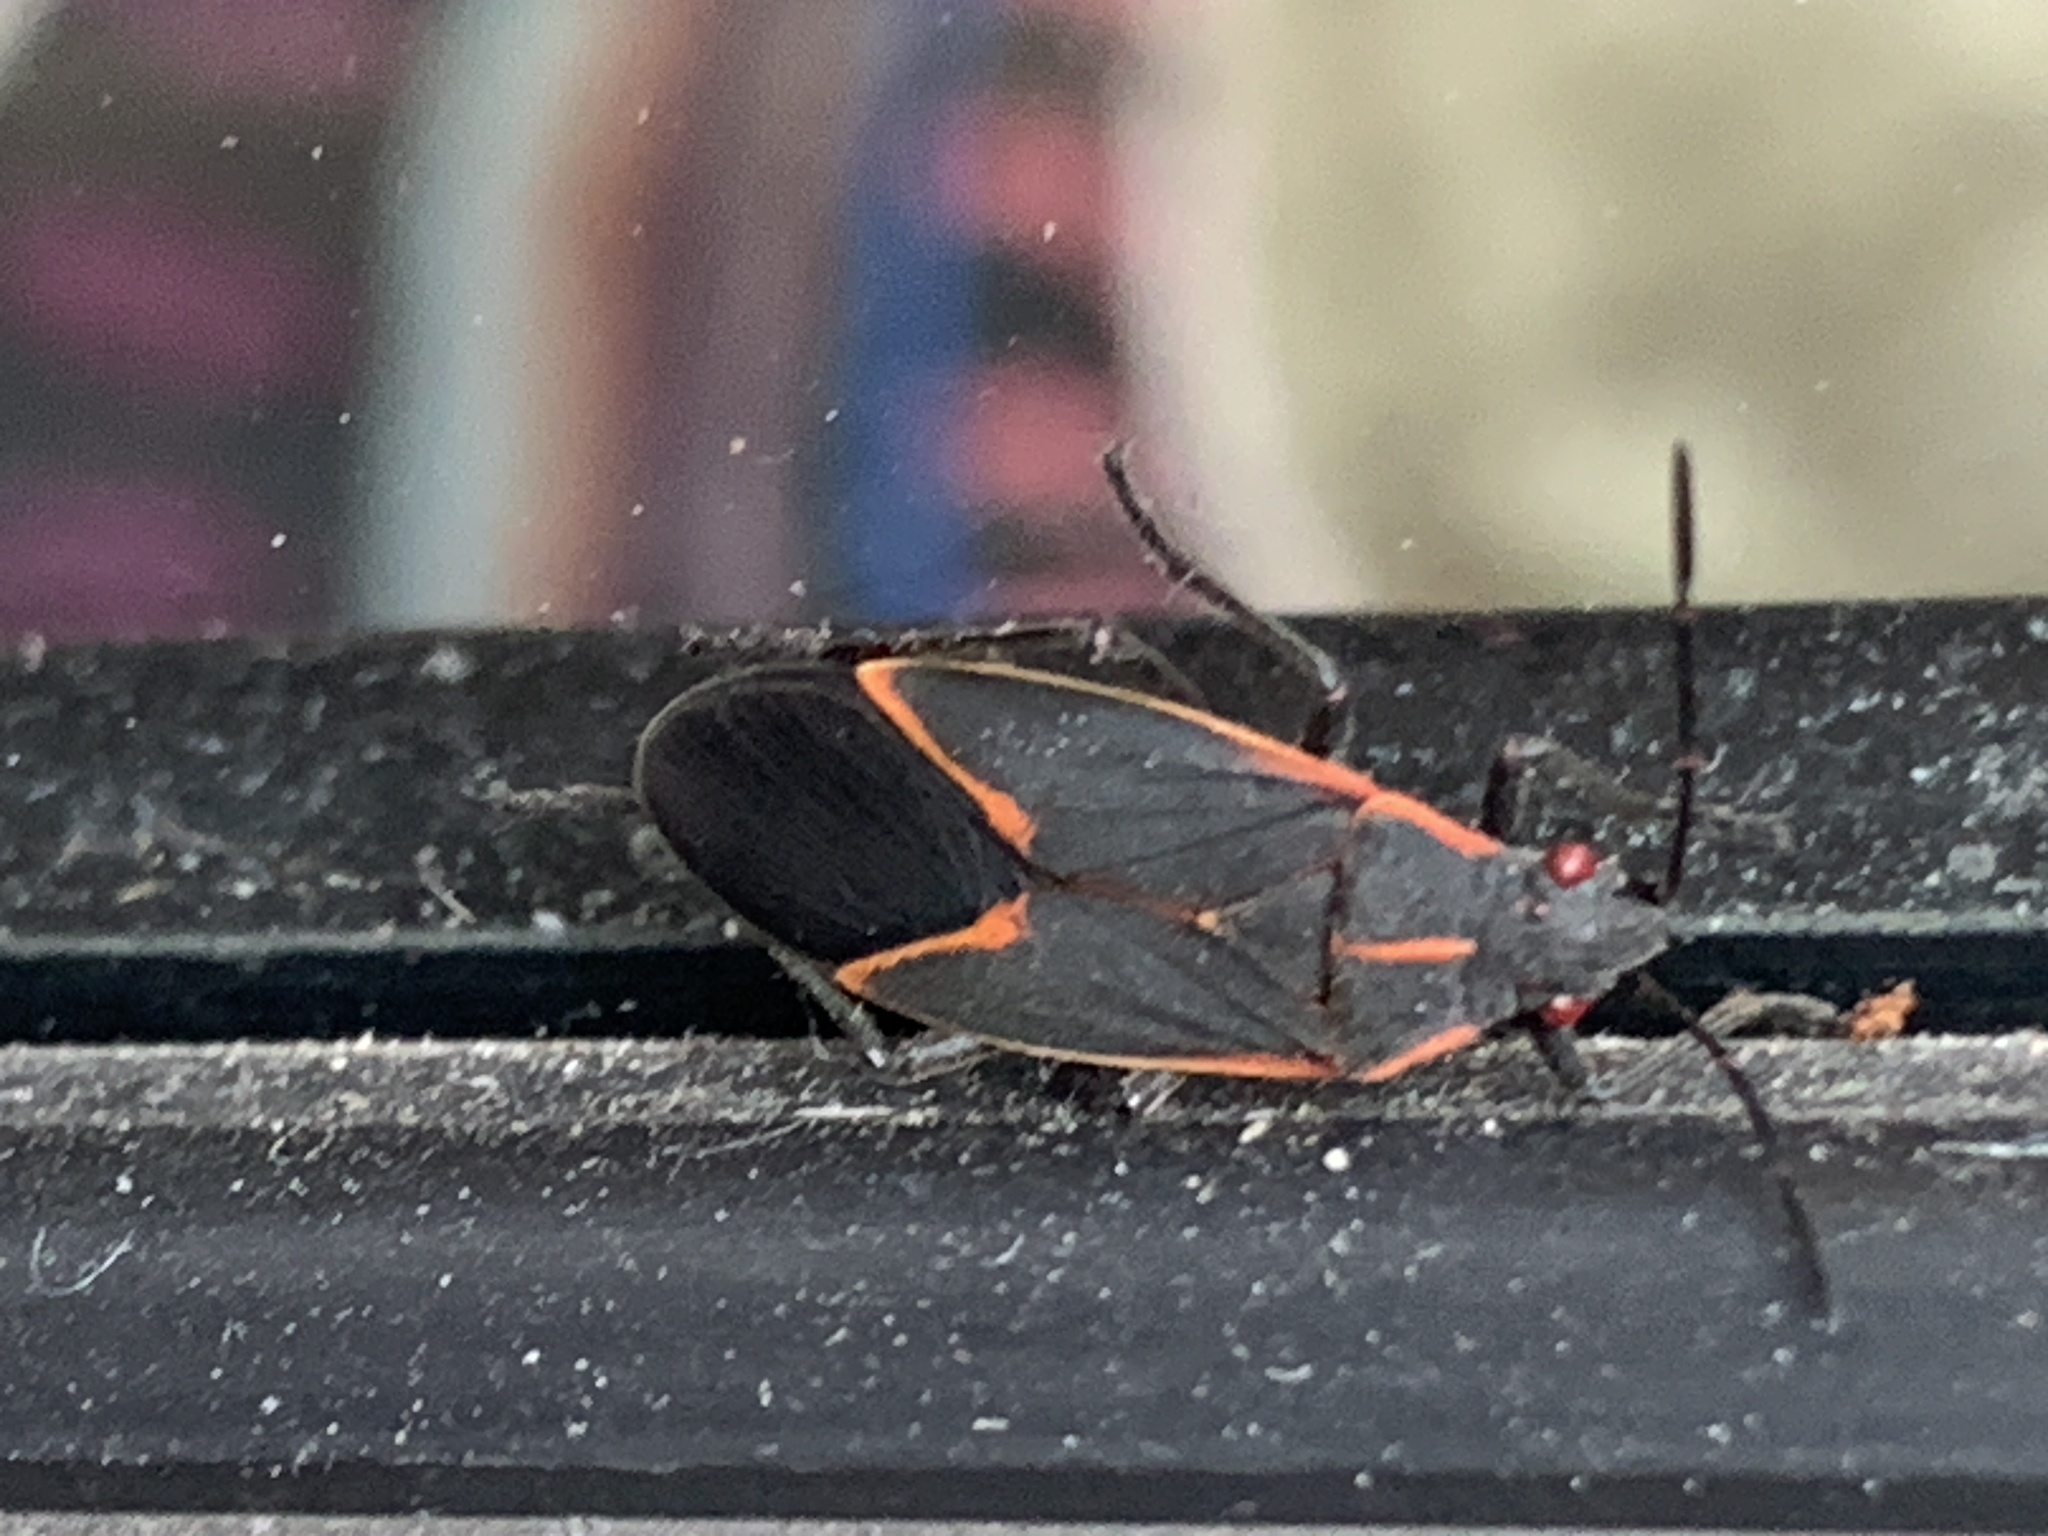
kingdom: Animalia
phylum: Arthropoda
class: Insecta
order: Hemiptera
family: Rhopalidae
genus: Boisea
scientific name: Boisea trivittata
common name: Boxelder bug
